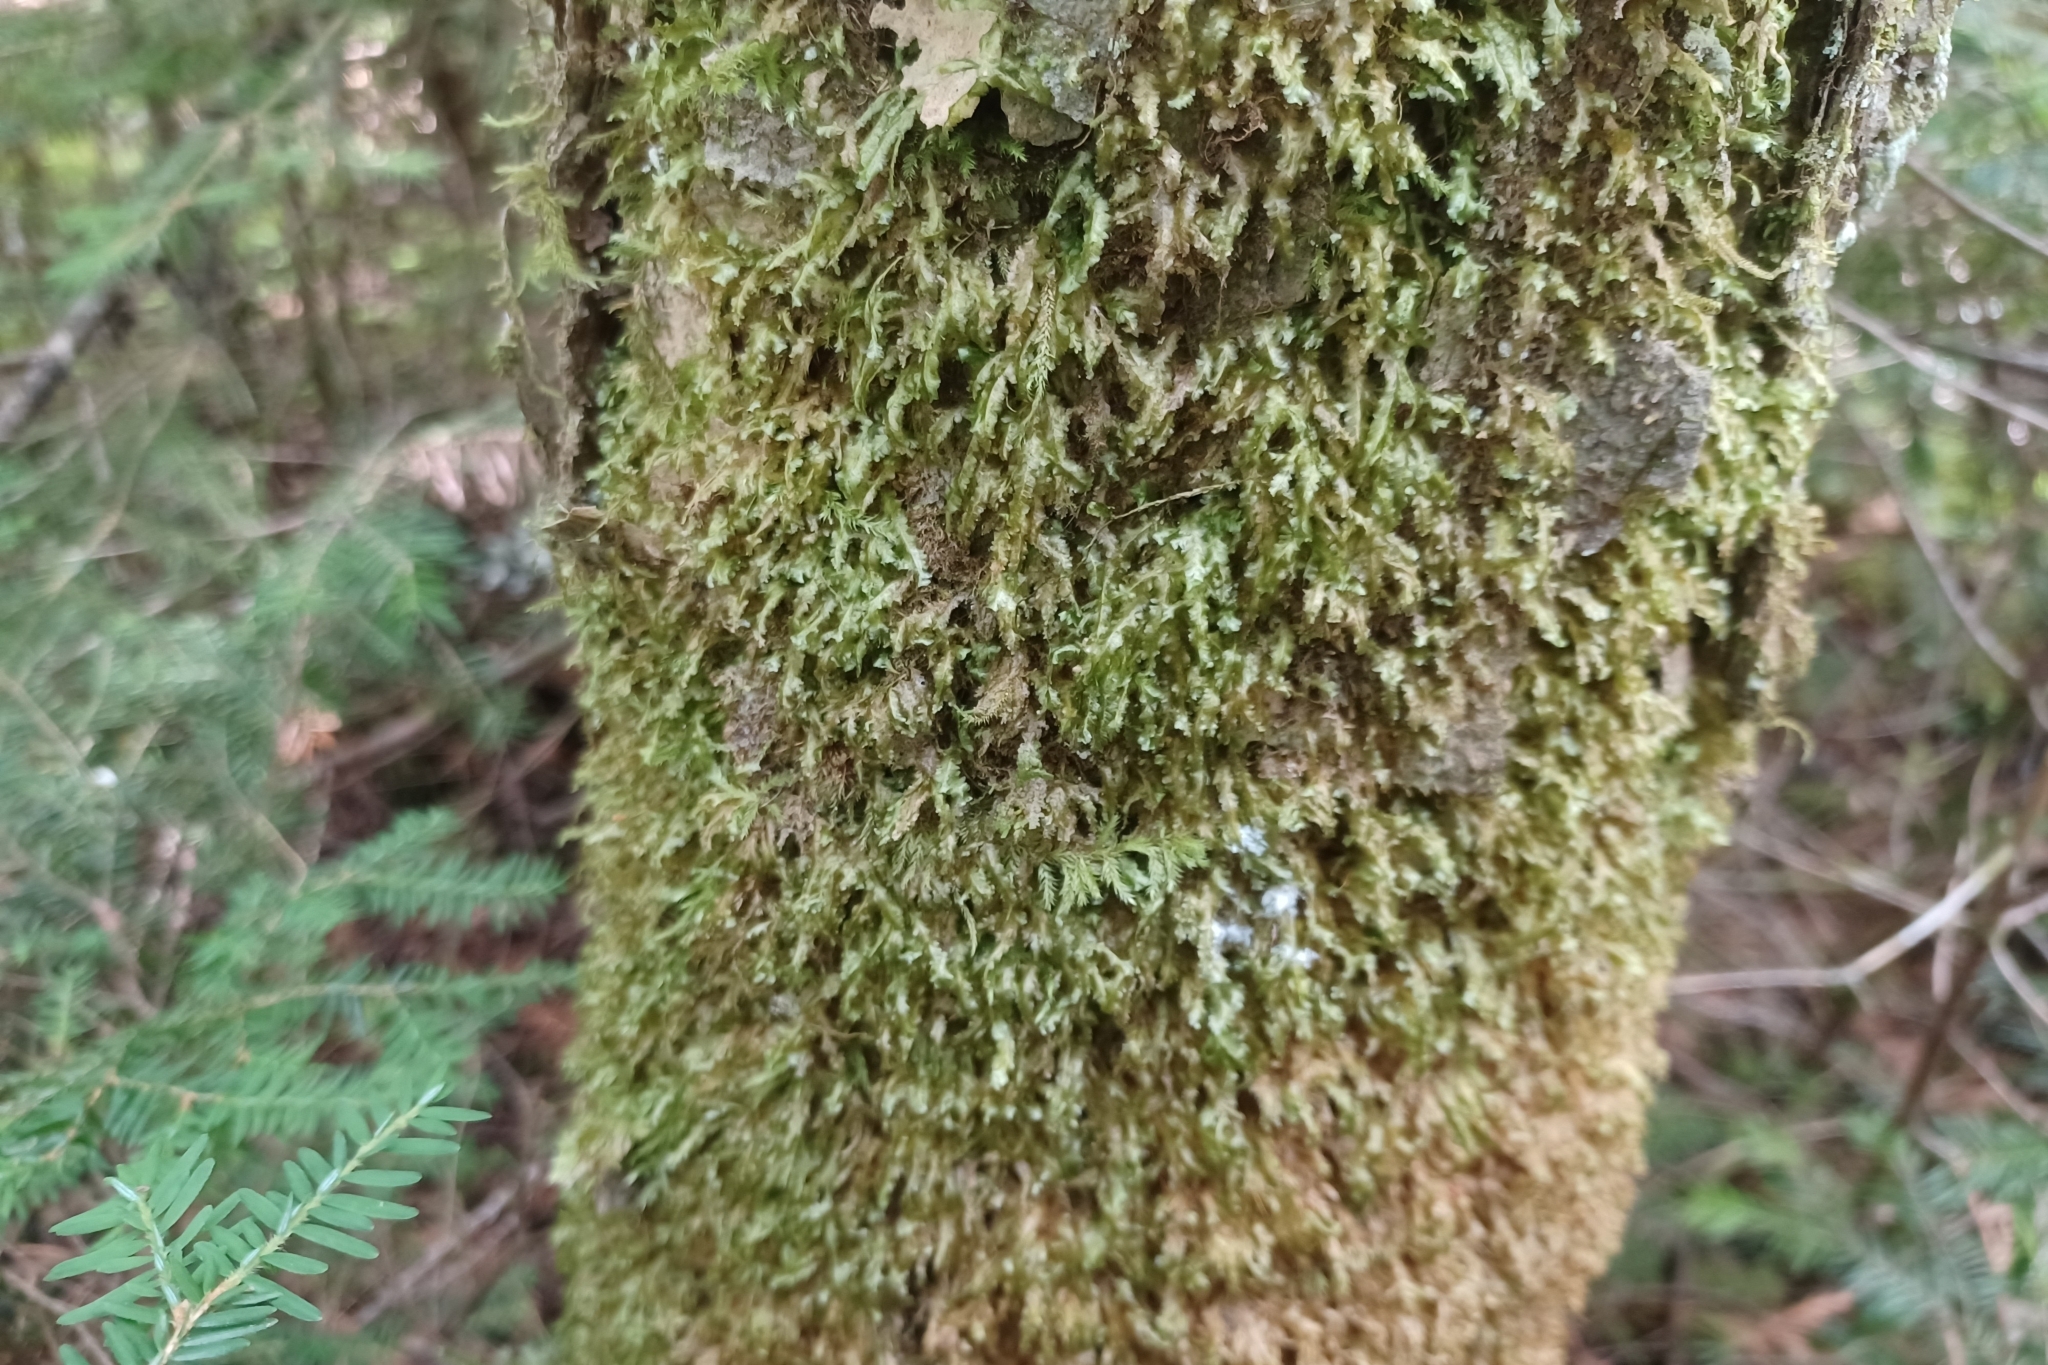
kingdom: Plantae
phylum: Bryophyta
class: Bryopsida
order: Hypnales
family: Neckeraceae
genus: Homalia
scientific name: Homalia trichomanoides
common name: Lime homalia moss
